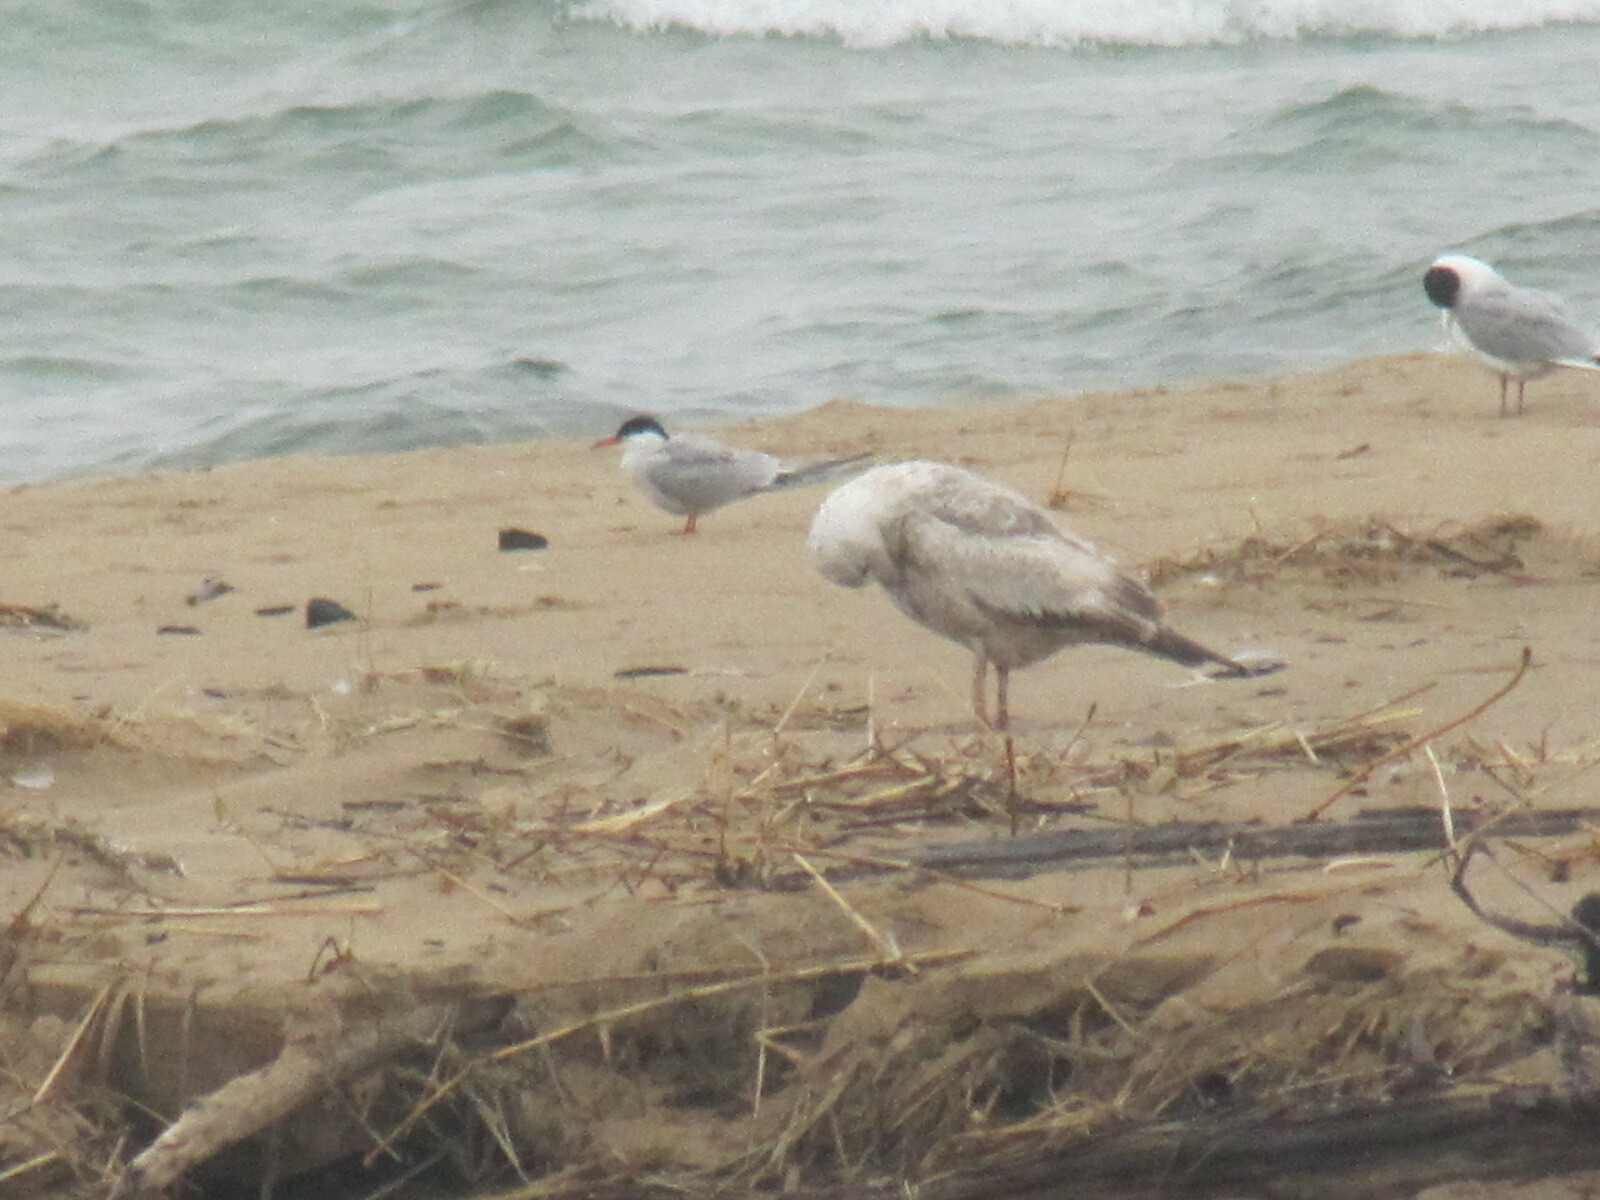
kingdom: Animalia
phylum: Chordata
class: Aves
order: Charadriiformes
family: Laridae
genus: Sterna
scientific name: Sterna paradisaea
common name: Arctic tern
